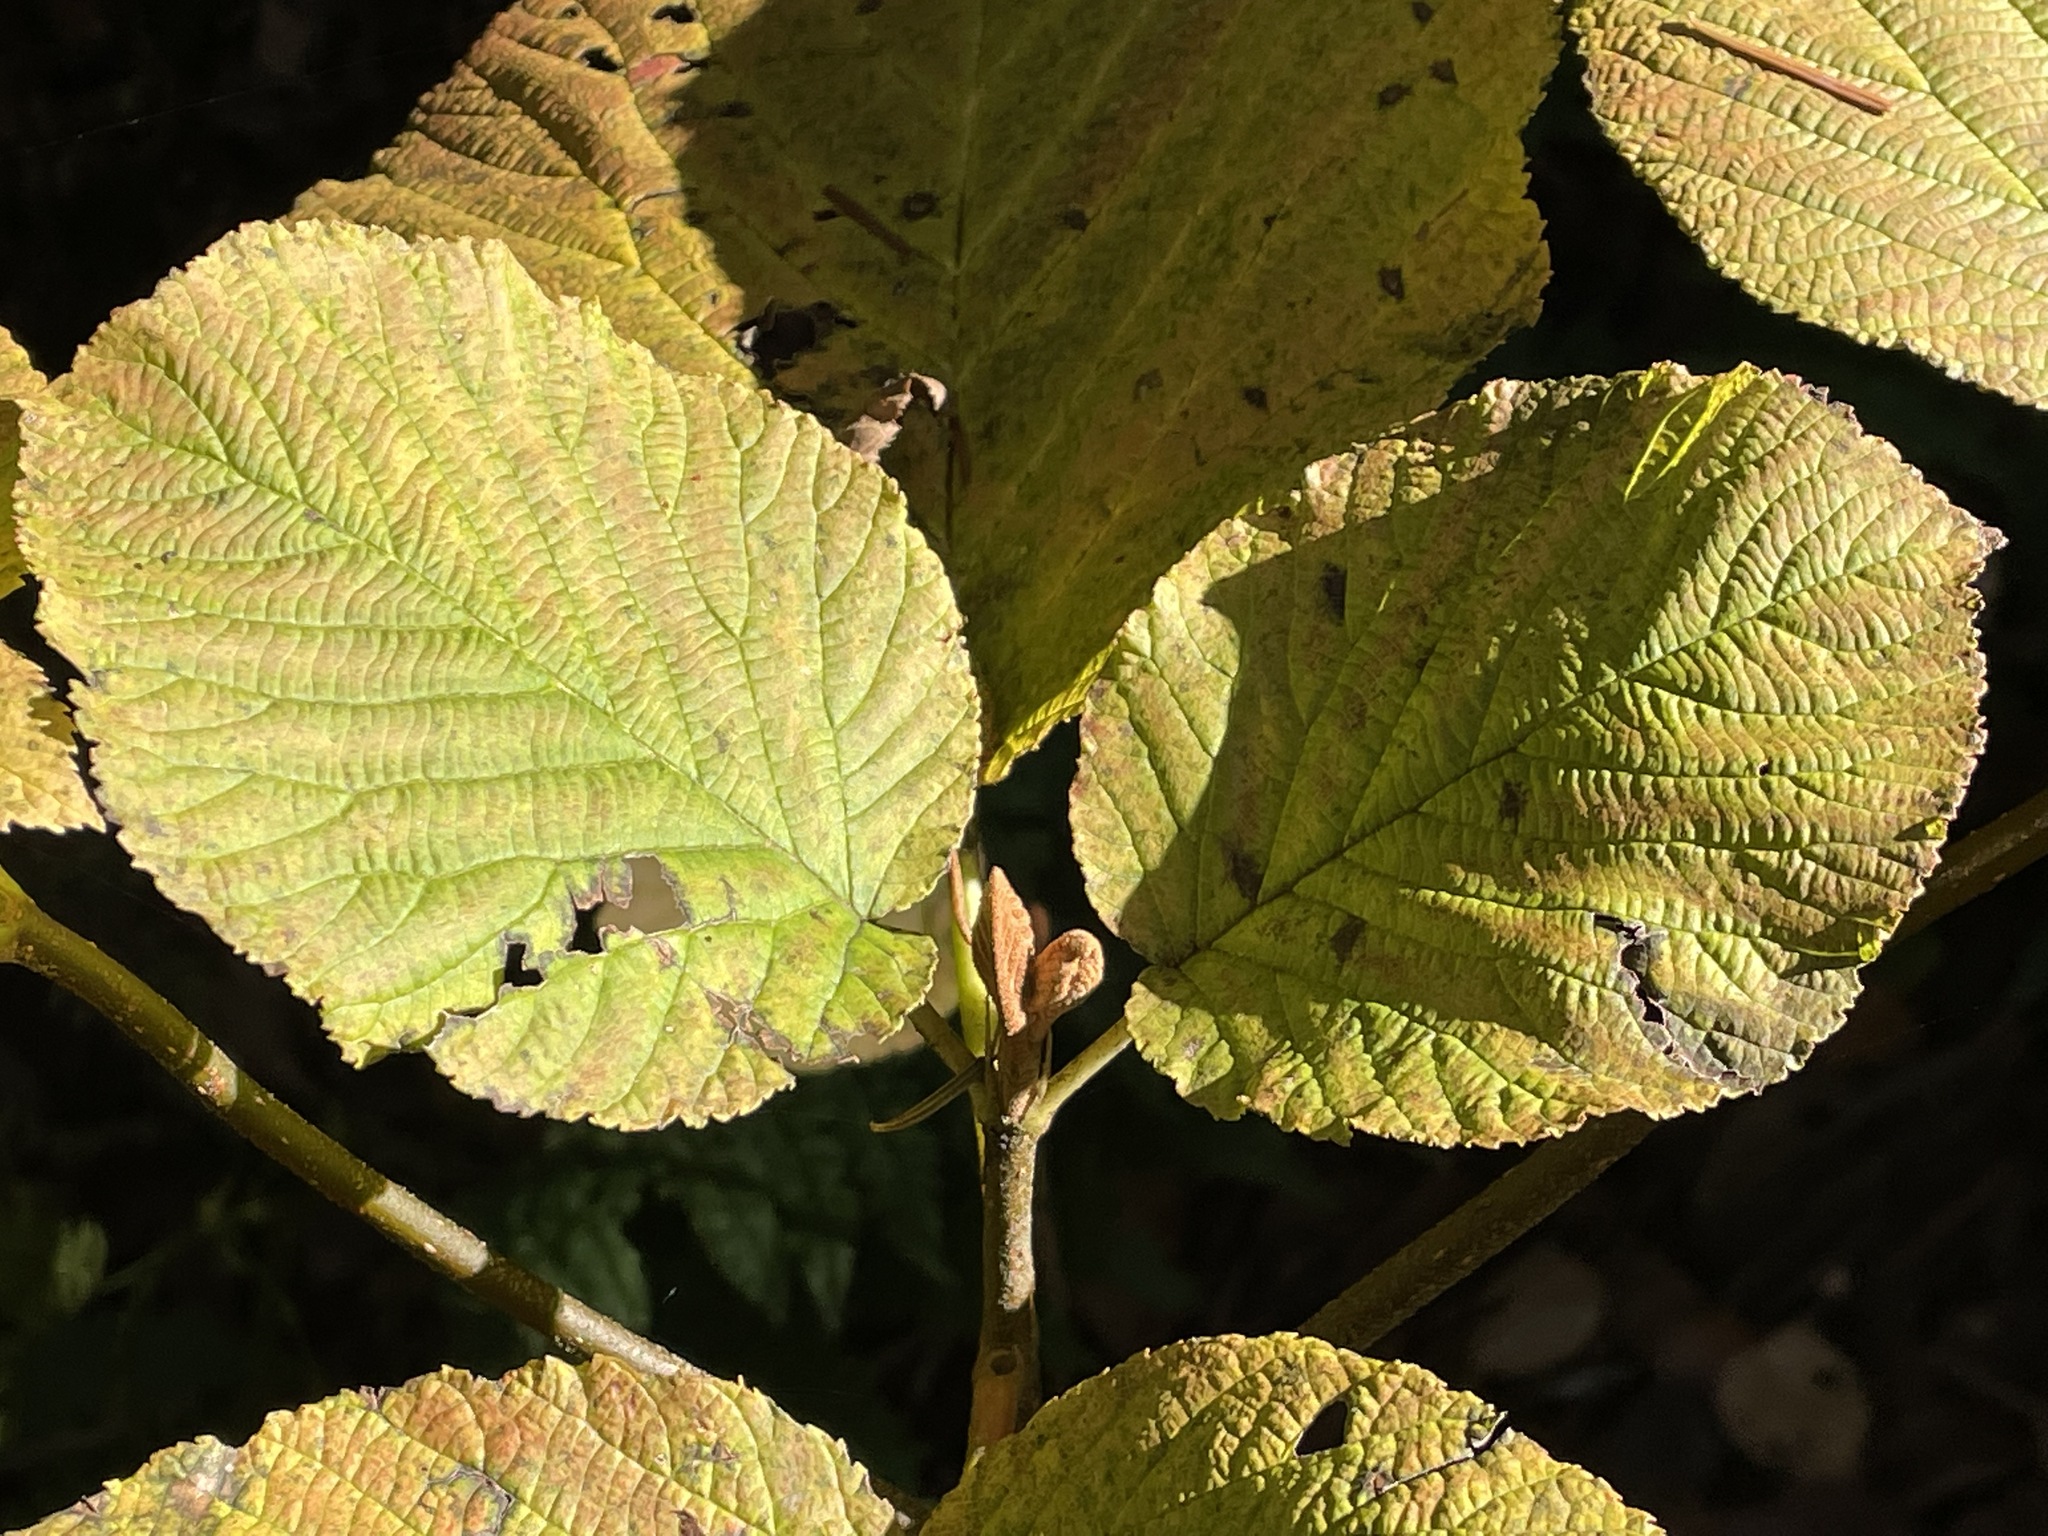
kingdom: Plantae
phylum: Tracheophyta
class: Magnoliopsida
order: Dipsacales
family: Viburnaceae
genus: Viburnum
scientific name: Viburnum lantanoides
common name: Hobblebush
